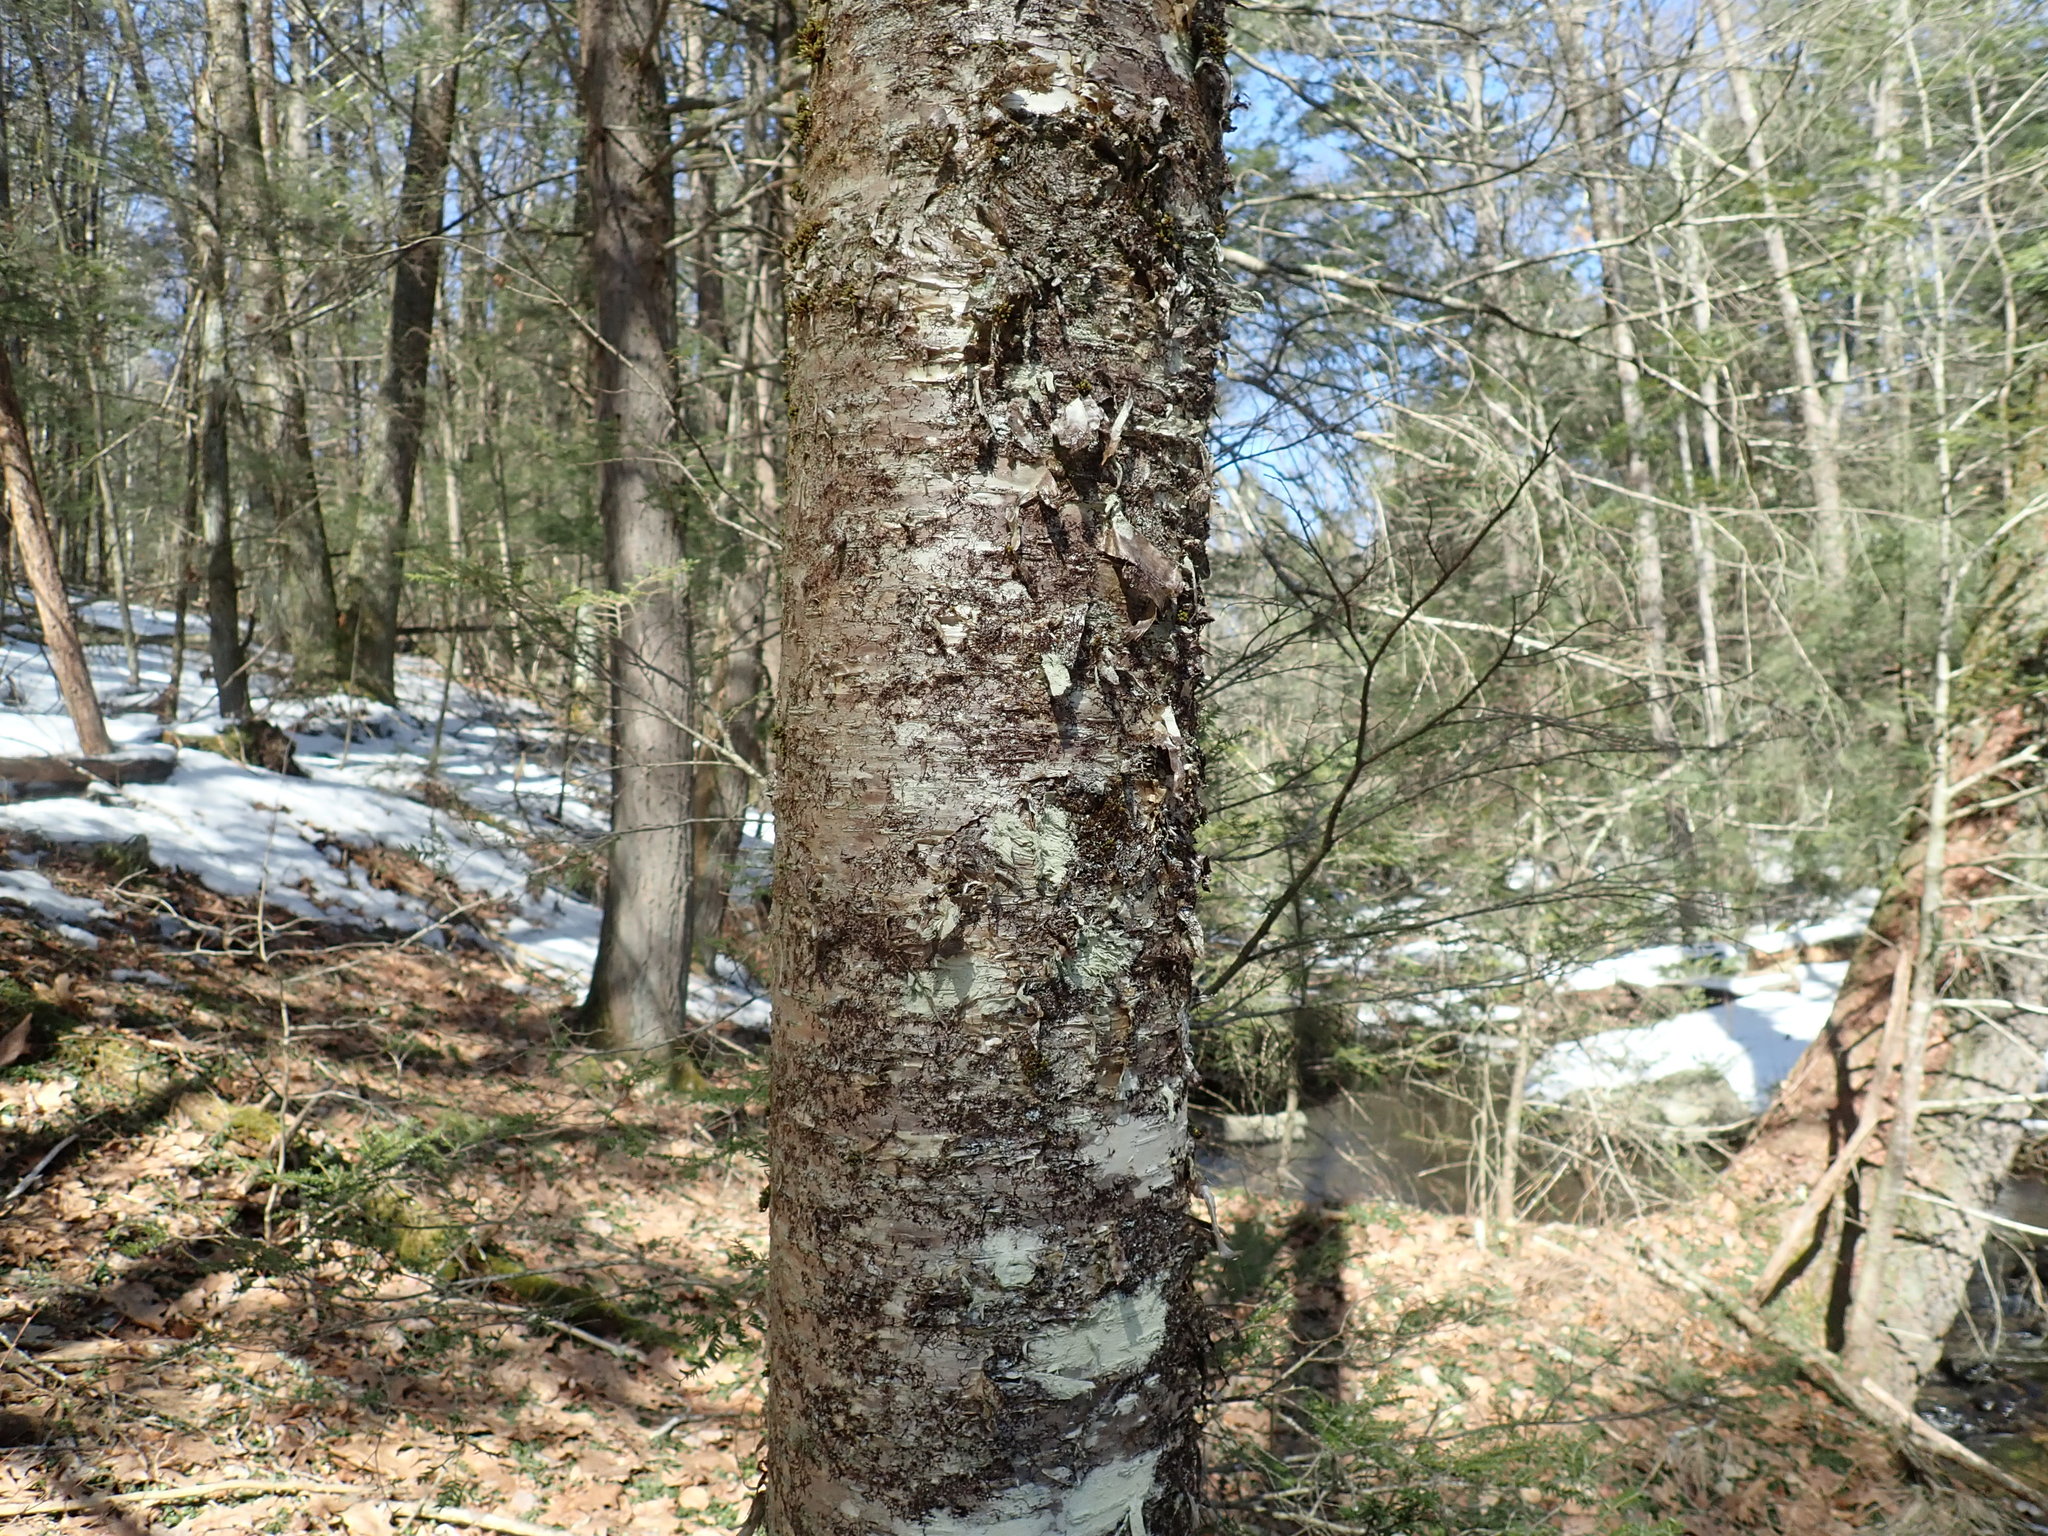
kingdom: Plantae
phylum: Tracheophyta
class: Magnoliopsida
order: Fagales
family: Betulaceae
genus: Betula
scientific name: Betula alleghaniensis
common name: Yellow birch
